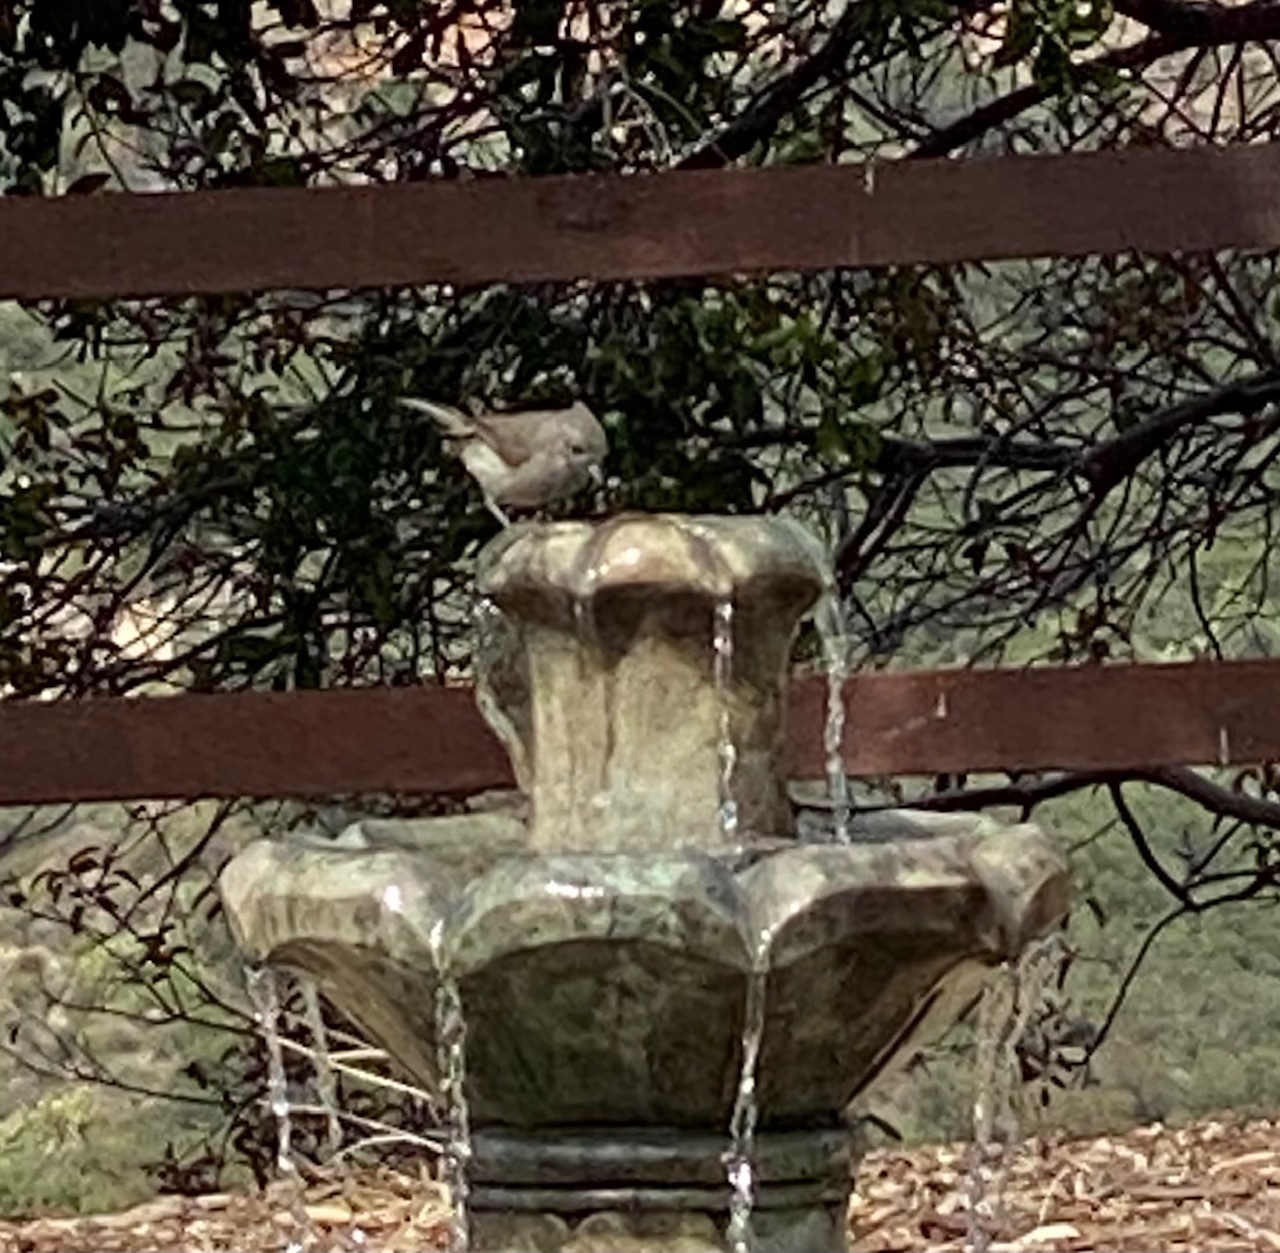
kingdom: Animalia
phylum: Chordata
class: Aves
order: Passeriformes
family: Paridae
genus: Baeolophus
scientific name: Baeolophus inornatus
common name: Oak titmouse
